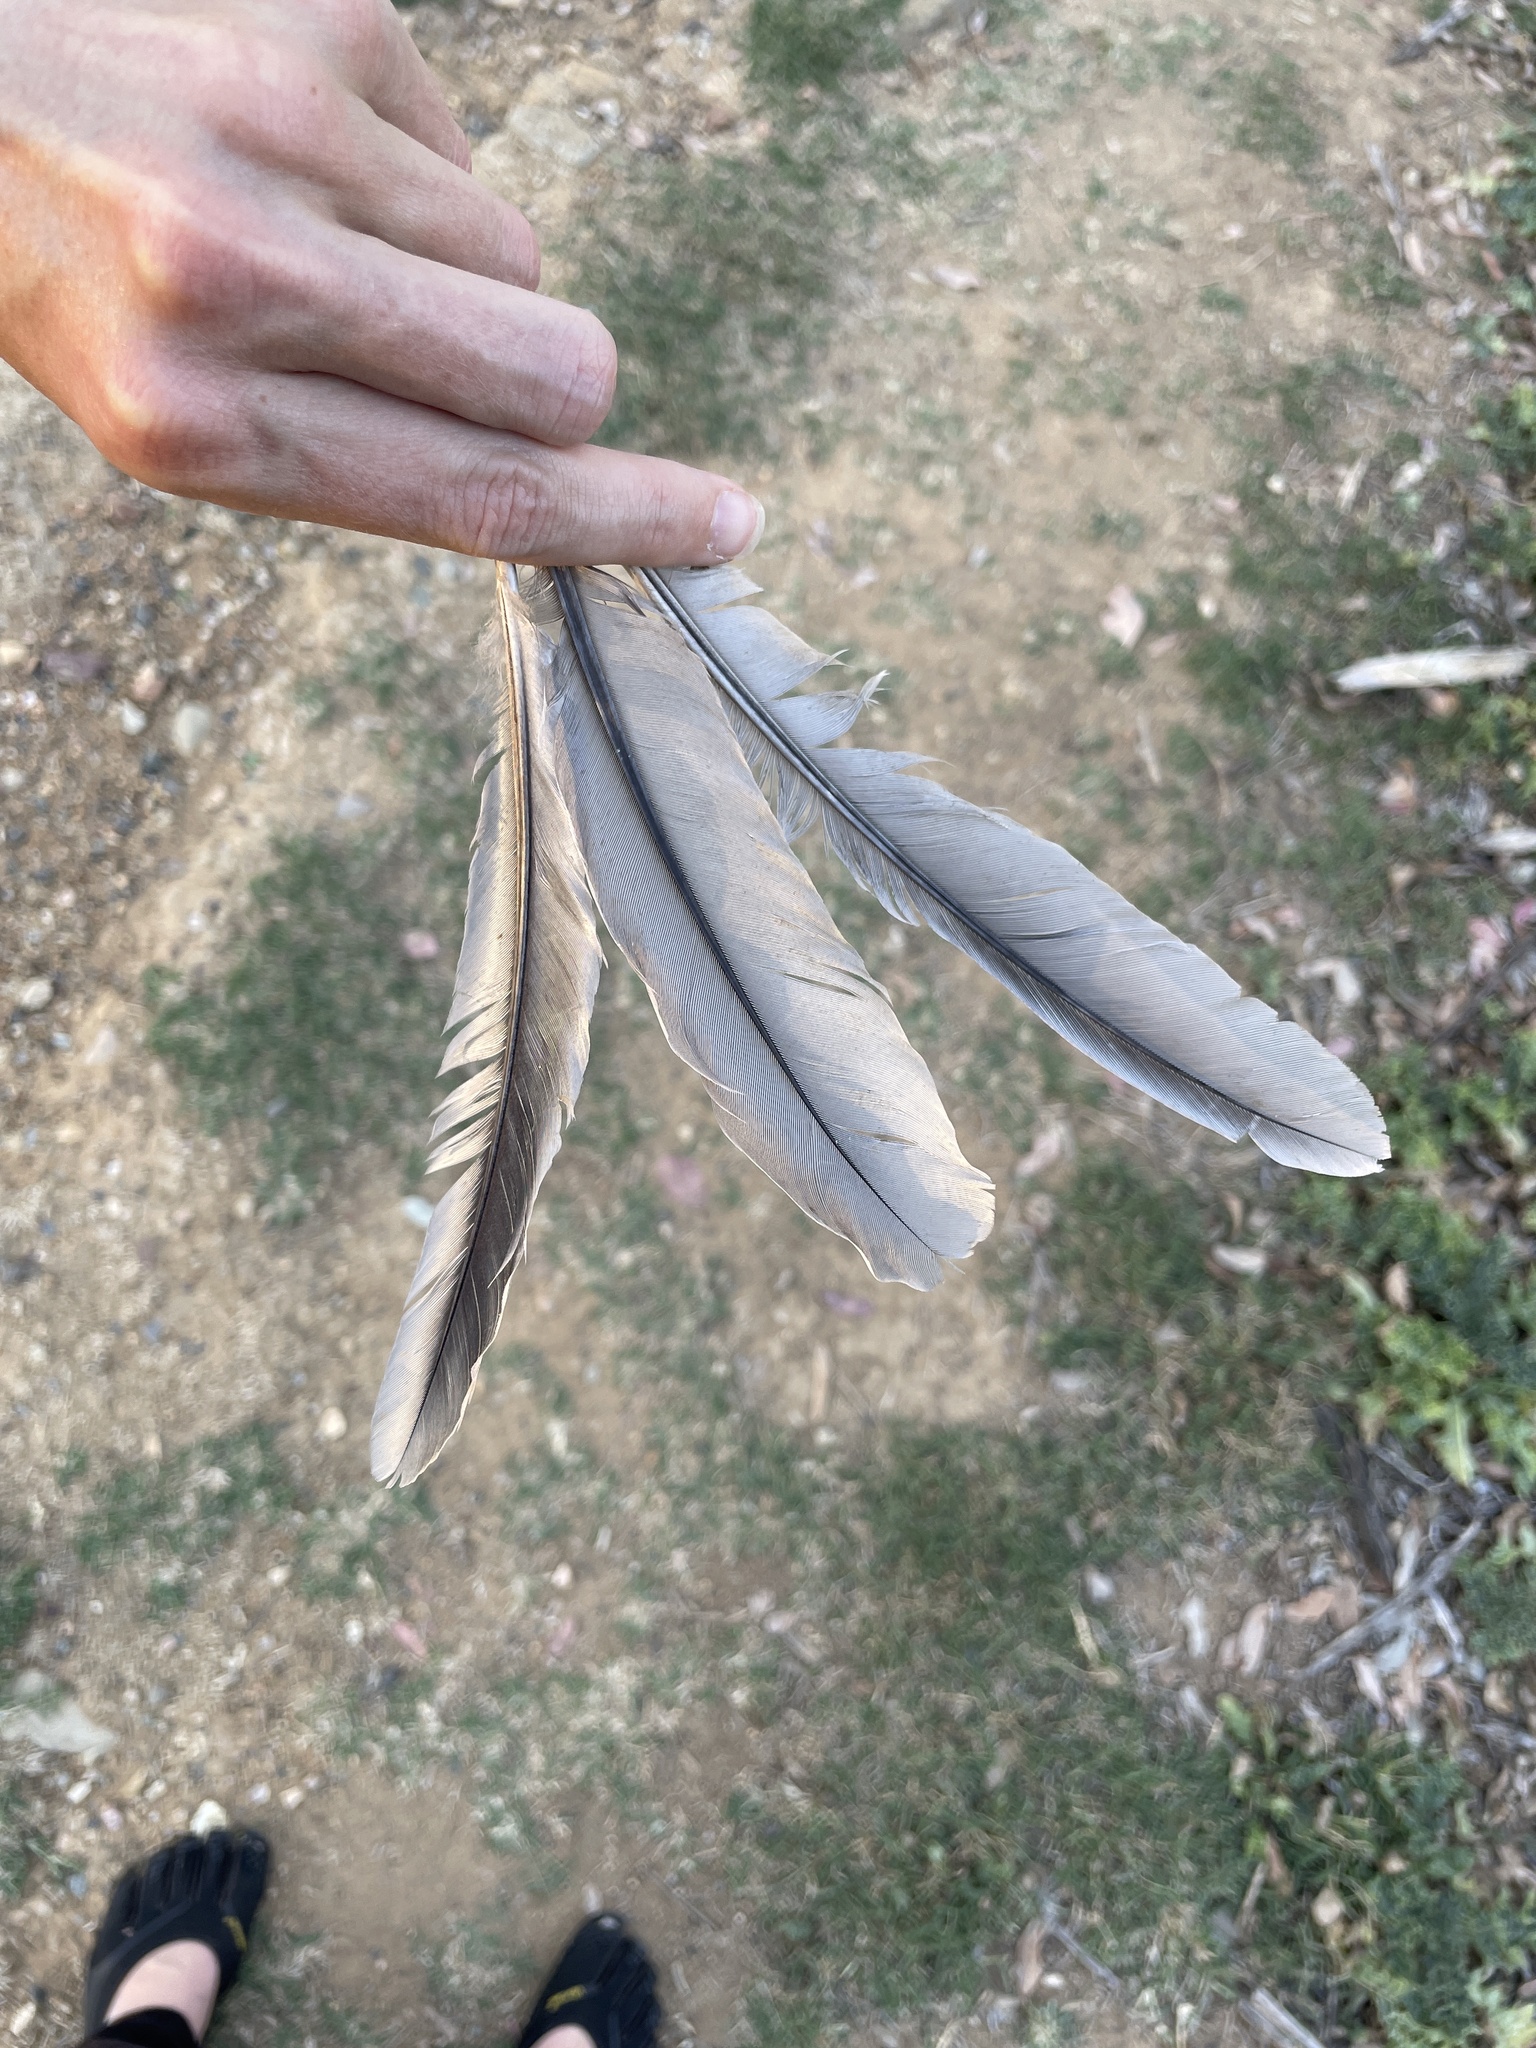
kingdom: Animalia
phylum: Chordata
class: Aves
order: Galliformes
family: Phasianidae
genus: Gallus
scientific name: Gallus gallus
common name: Red junglefowl
